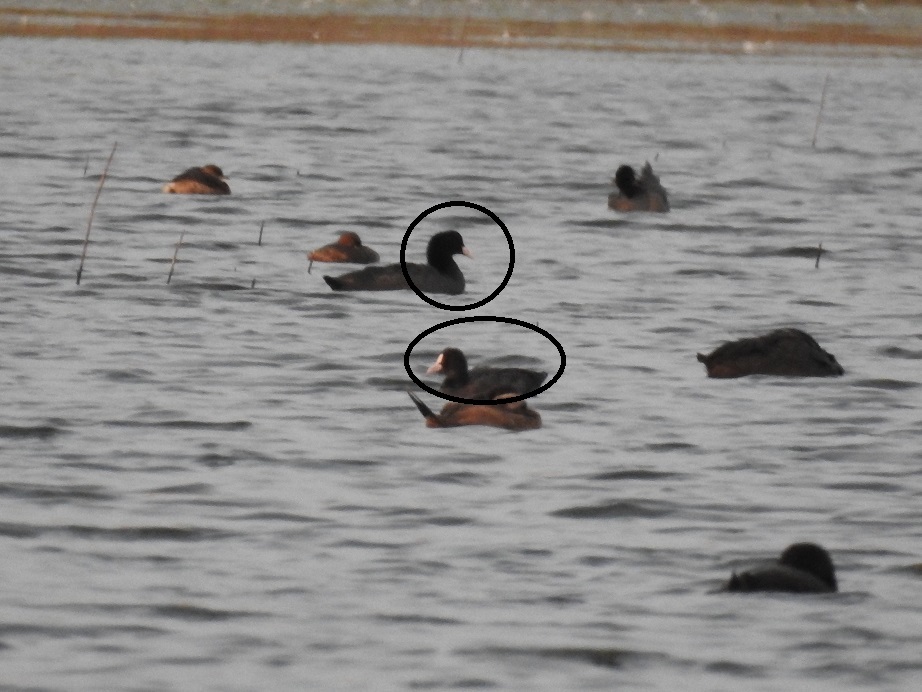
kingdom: Animalia
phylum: Chordata
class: Aves
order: Gruiformes
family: Rallidae
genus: Fulica
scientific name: Fulica atra
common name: Eurasian coot
